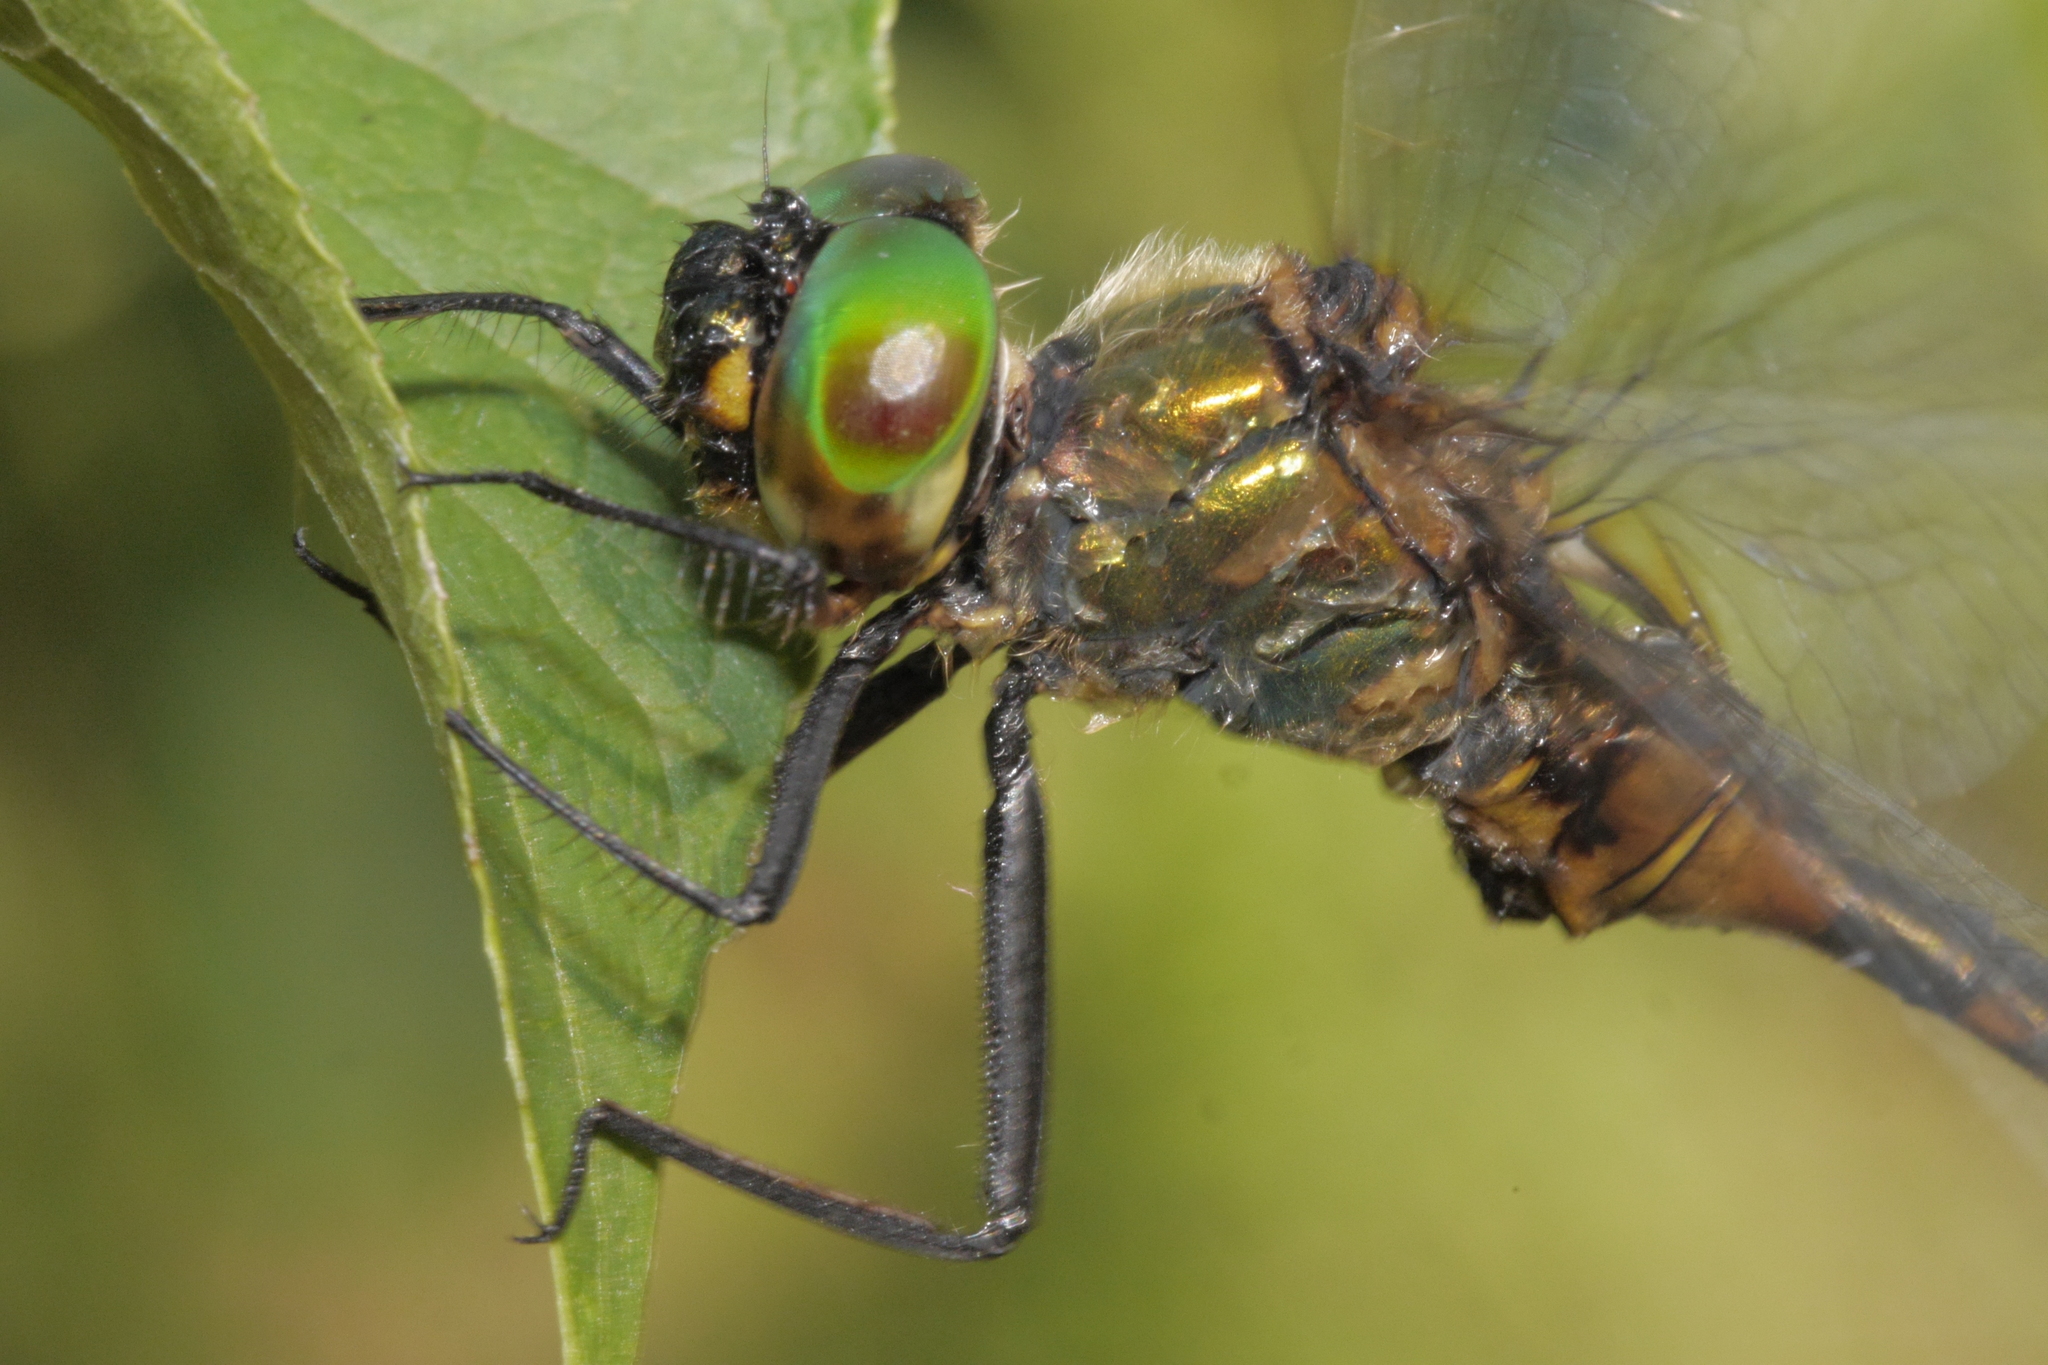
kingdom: Animalia
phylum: Arthropoda
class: Insecta
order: Odonata
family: Corduliidae
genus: Somatochlora
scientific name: Somatochlora flavomaculata
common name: Yellow-spotted emerald
